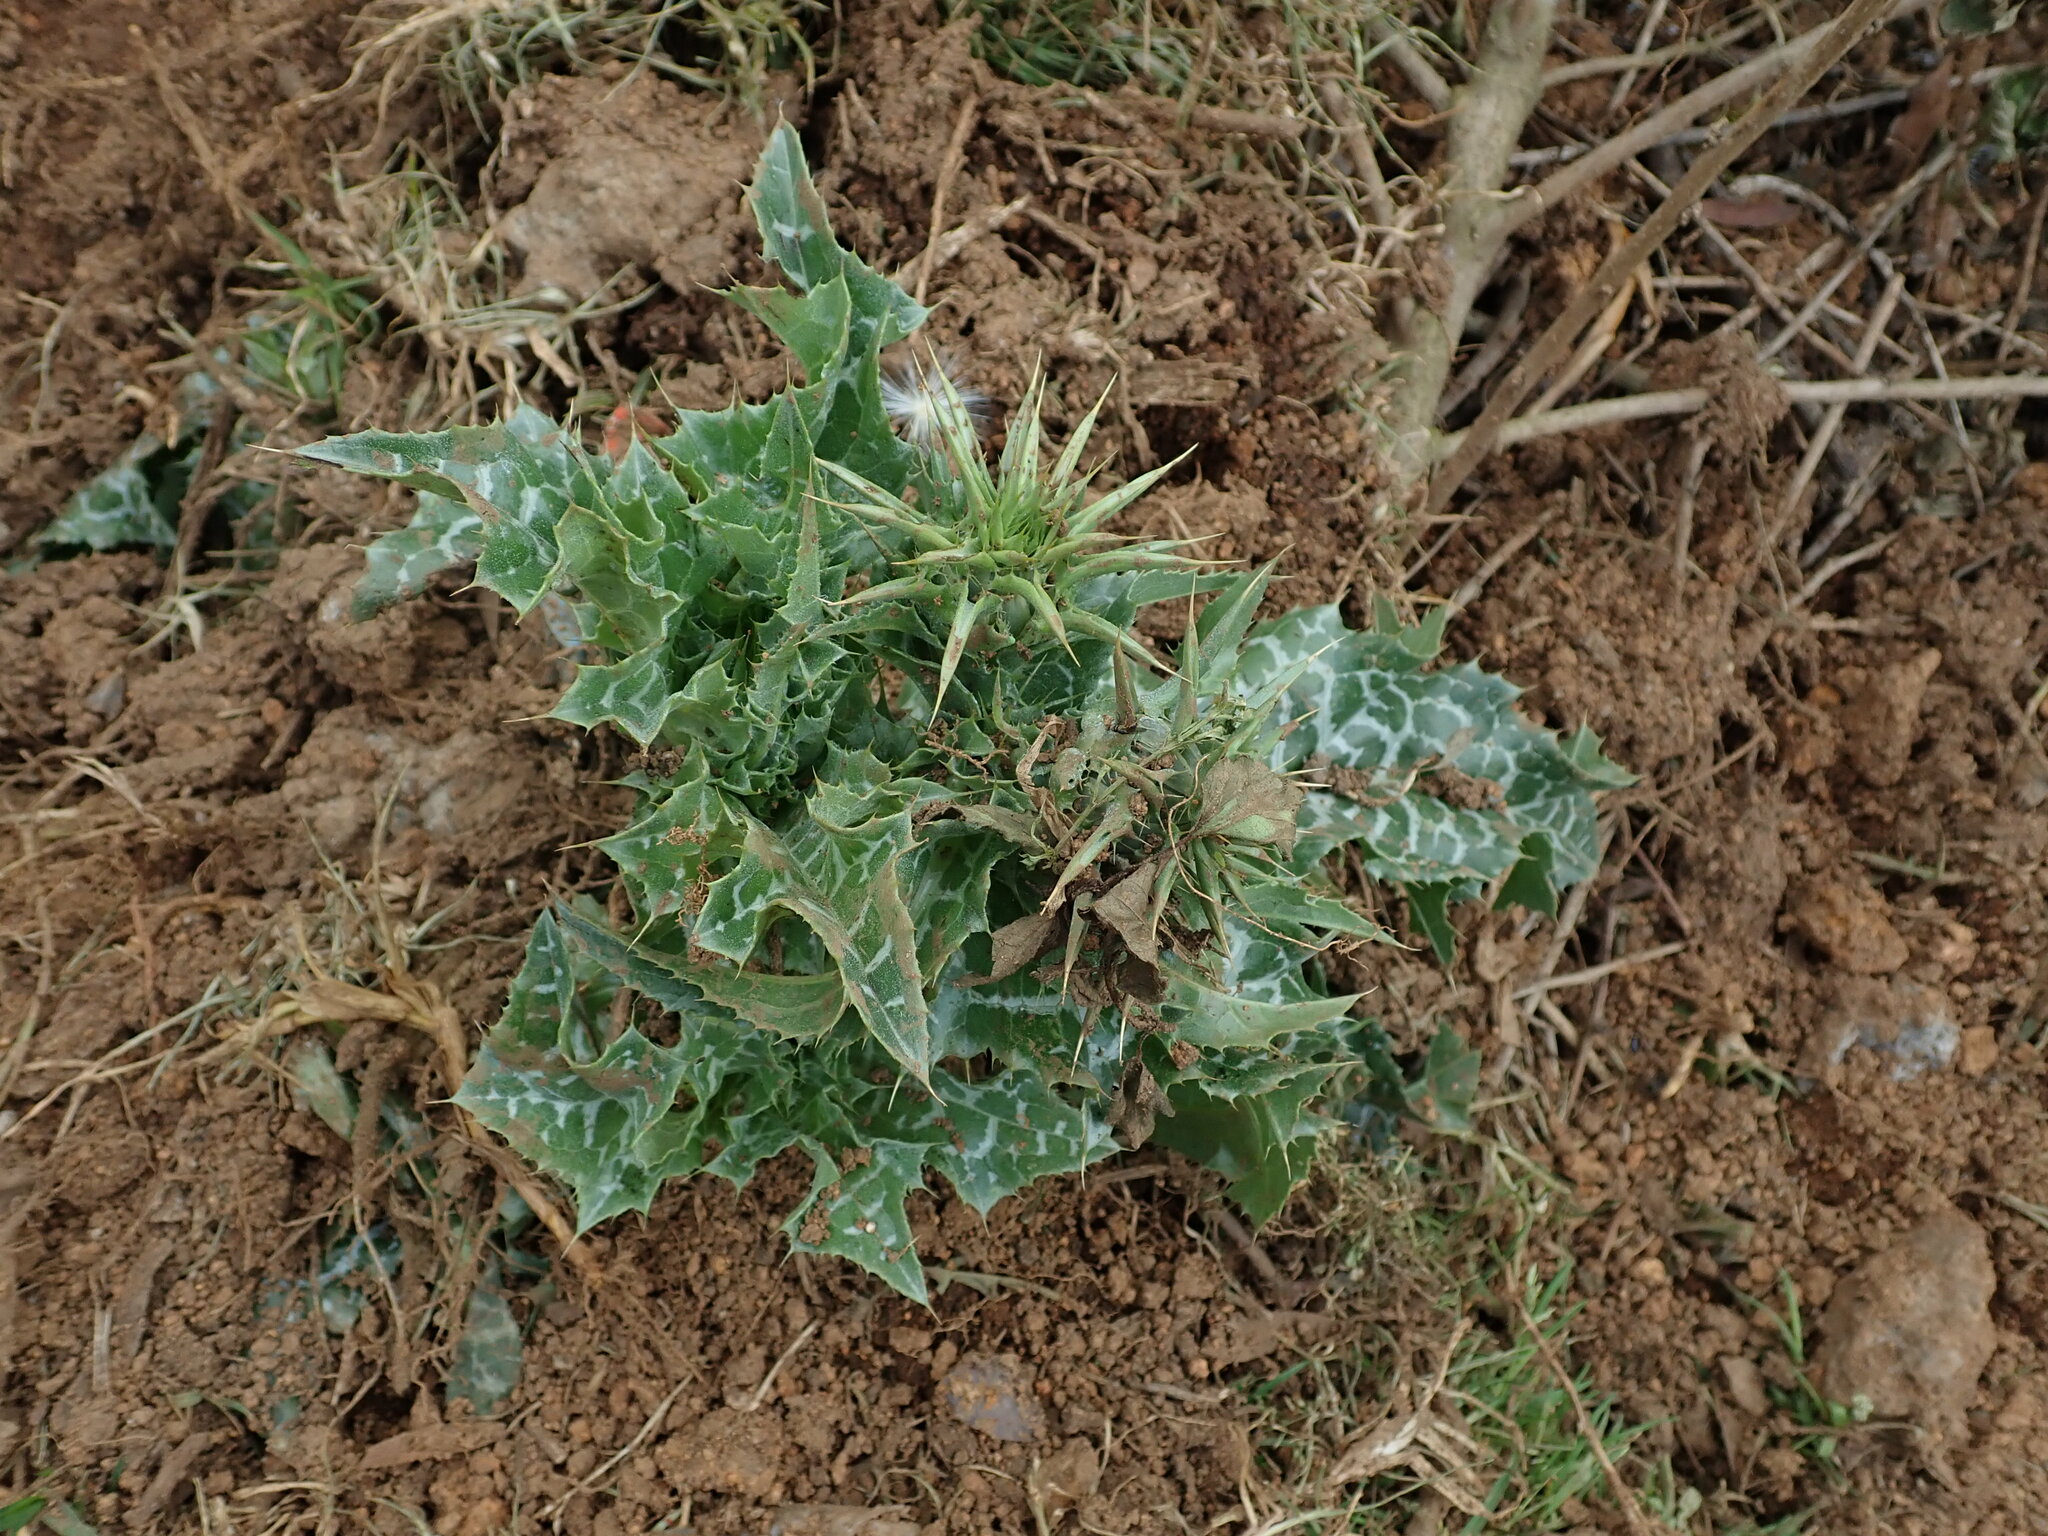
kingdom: Plantae
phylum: Tracheophyta
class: Magnoliopsida
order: Asterales
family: Asteraceae
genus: Silybum
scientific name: Silybum marianum
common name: Milk thistle
